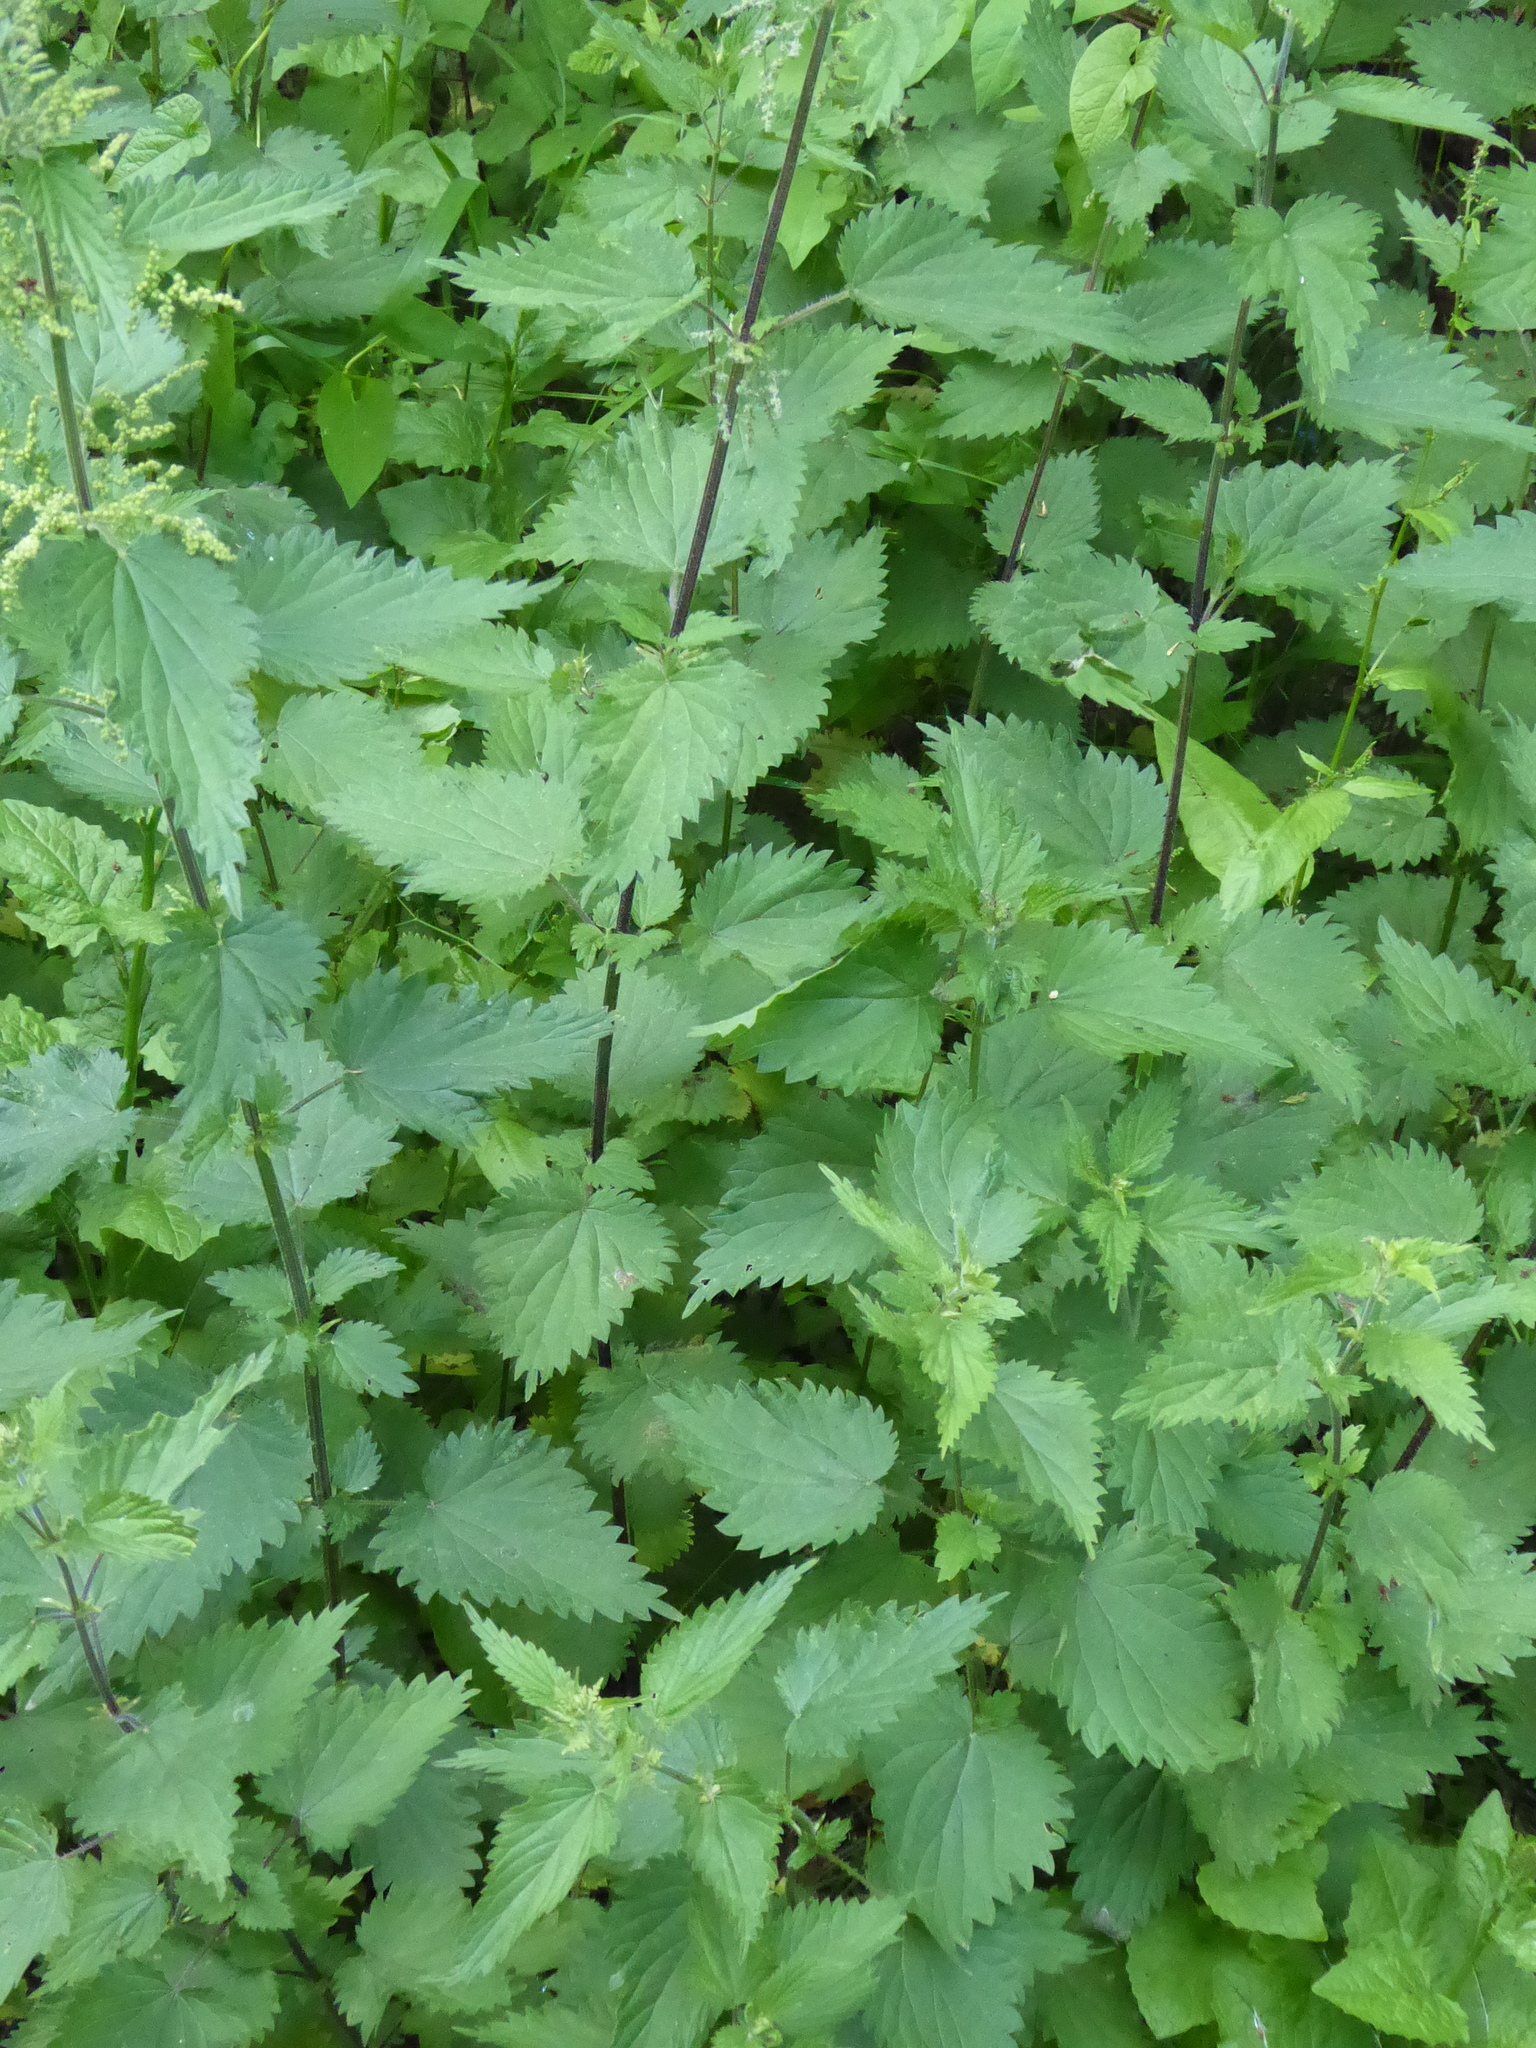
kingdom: Plantae
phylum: Tracheophyta
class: Magnoliopsida
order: Rosales
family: Urticaceae
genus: Urtica
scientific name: Urtica dioica
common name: Common nettle
